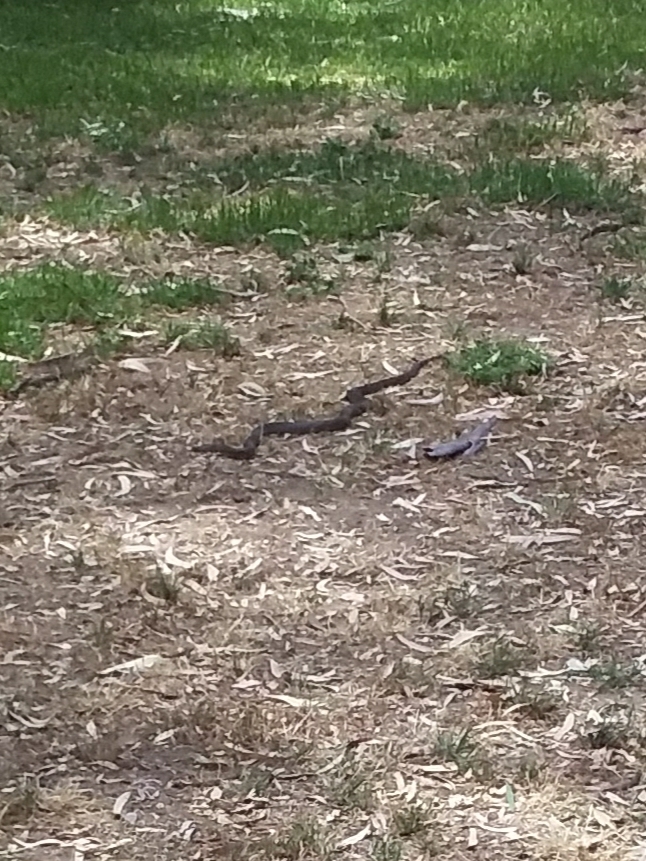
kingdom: Animalia
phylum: Chordata
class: Squamata
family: Elapidae
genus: Pseudonaja
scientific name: Pseudonaja textilis
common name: Eastern brown snake
